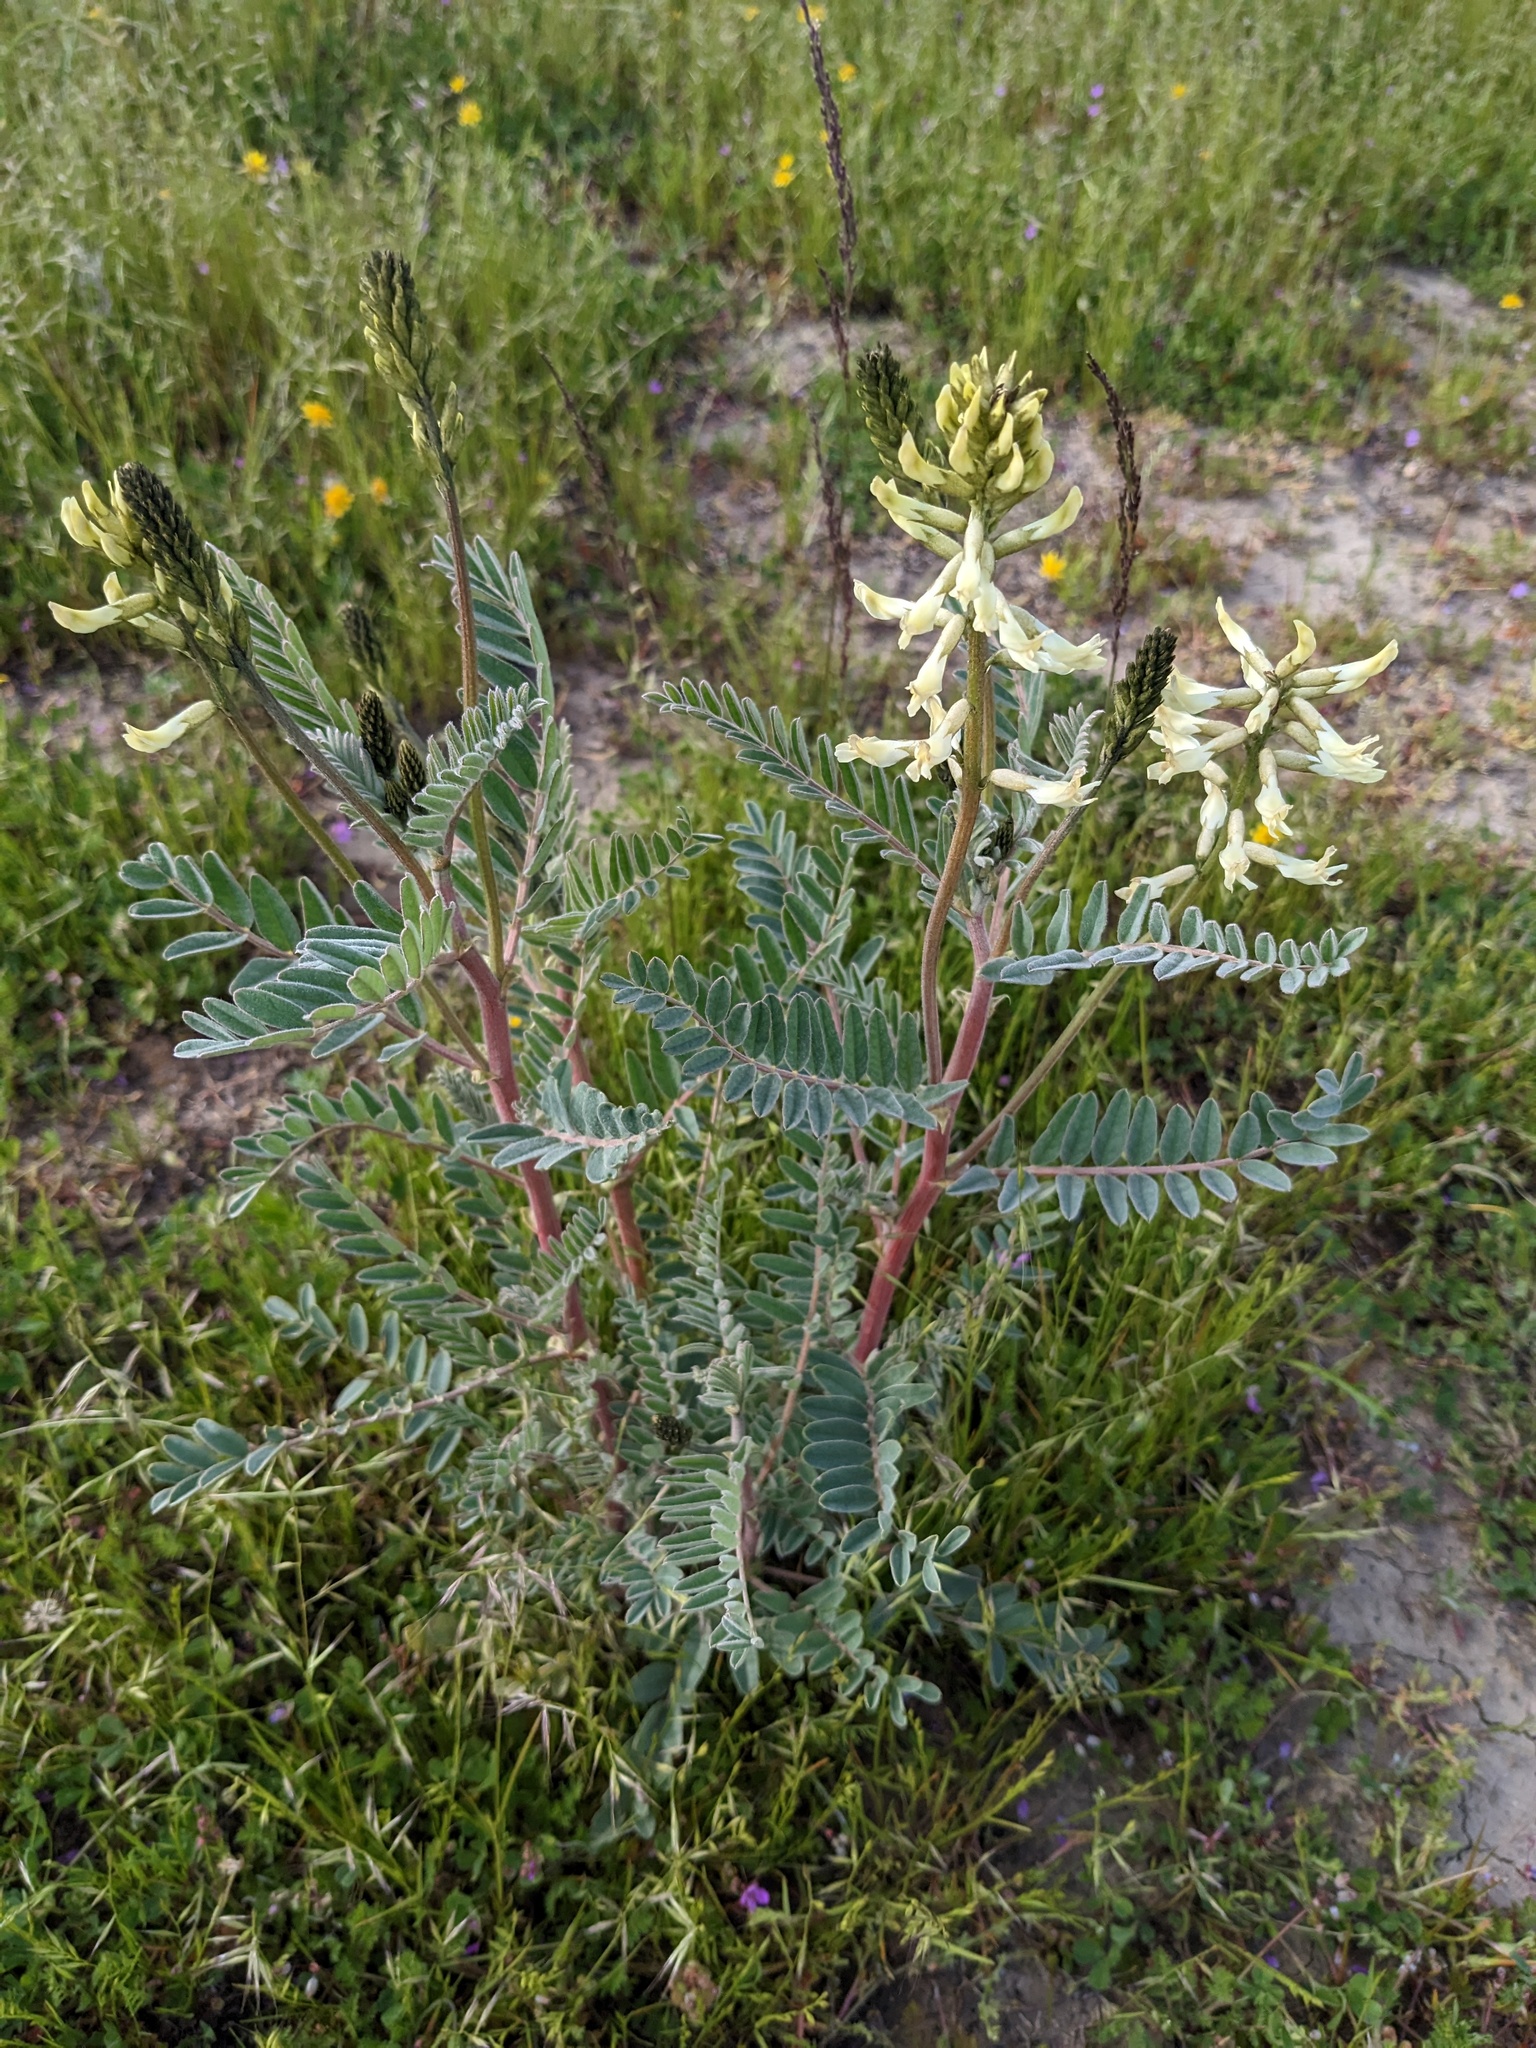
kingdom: Plantae
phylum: Tracheophyta
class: Magnoliopsida
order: Fabales
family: Fabaceae
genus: Astragalus
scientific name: Astragalus oxyphysus
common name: Stanislaus milk-vetch
